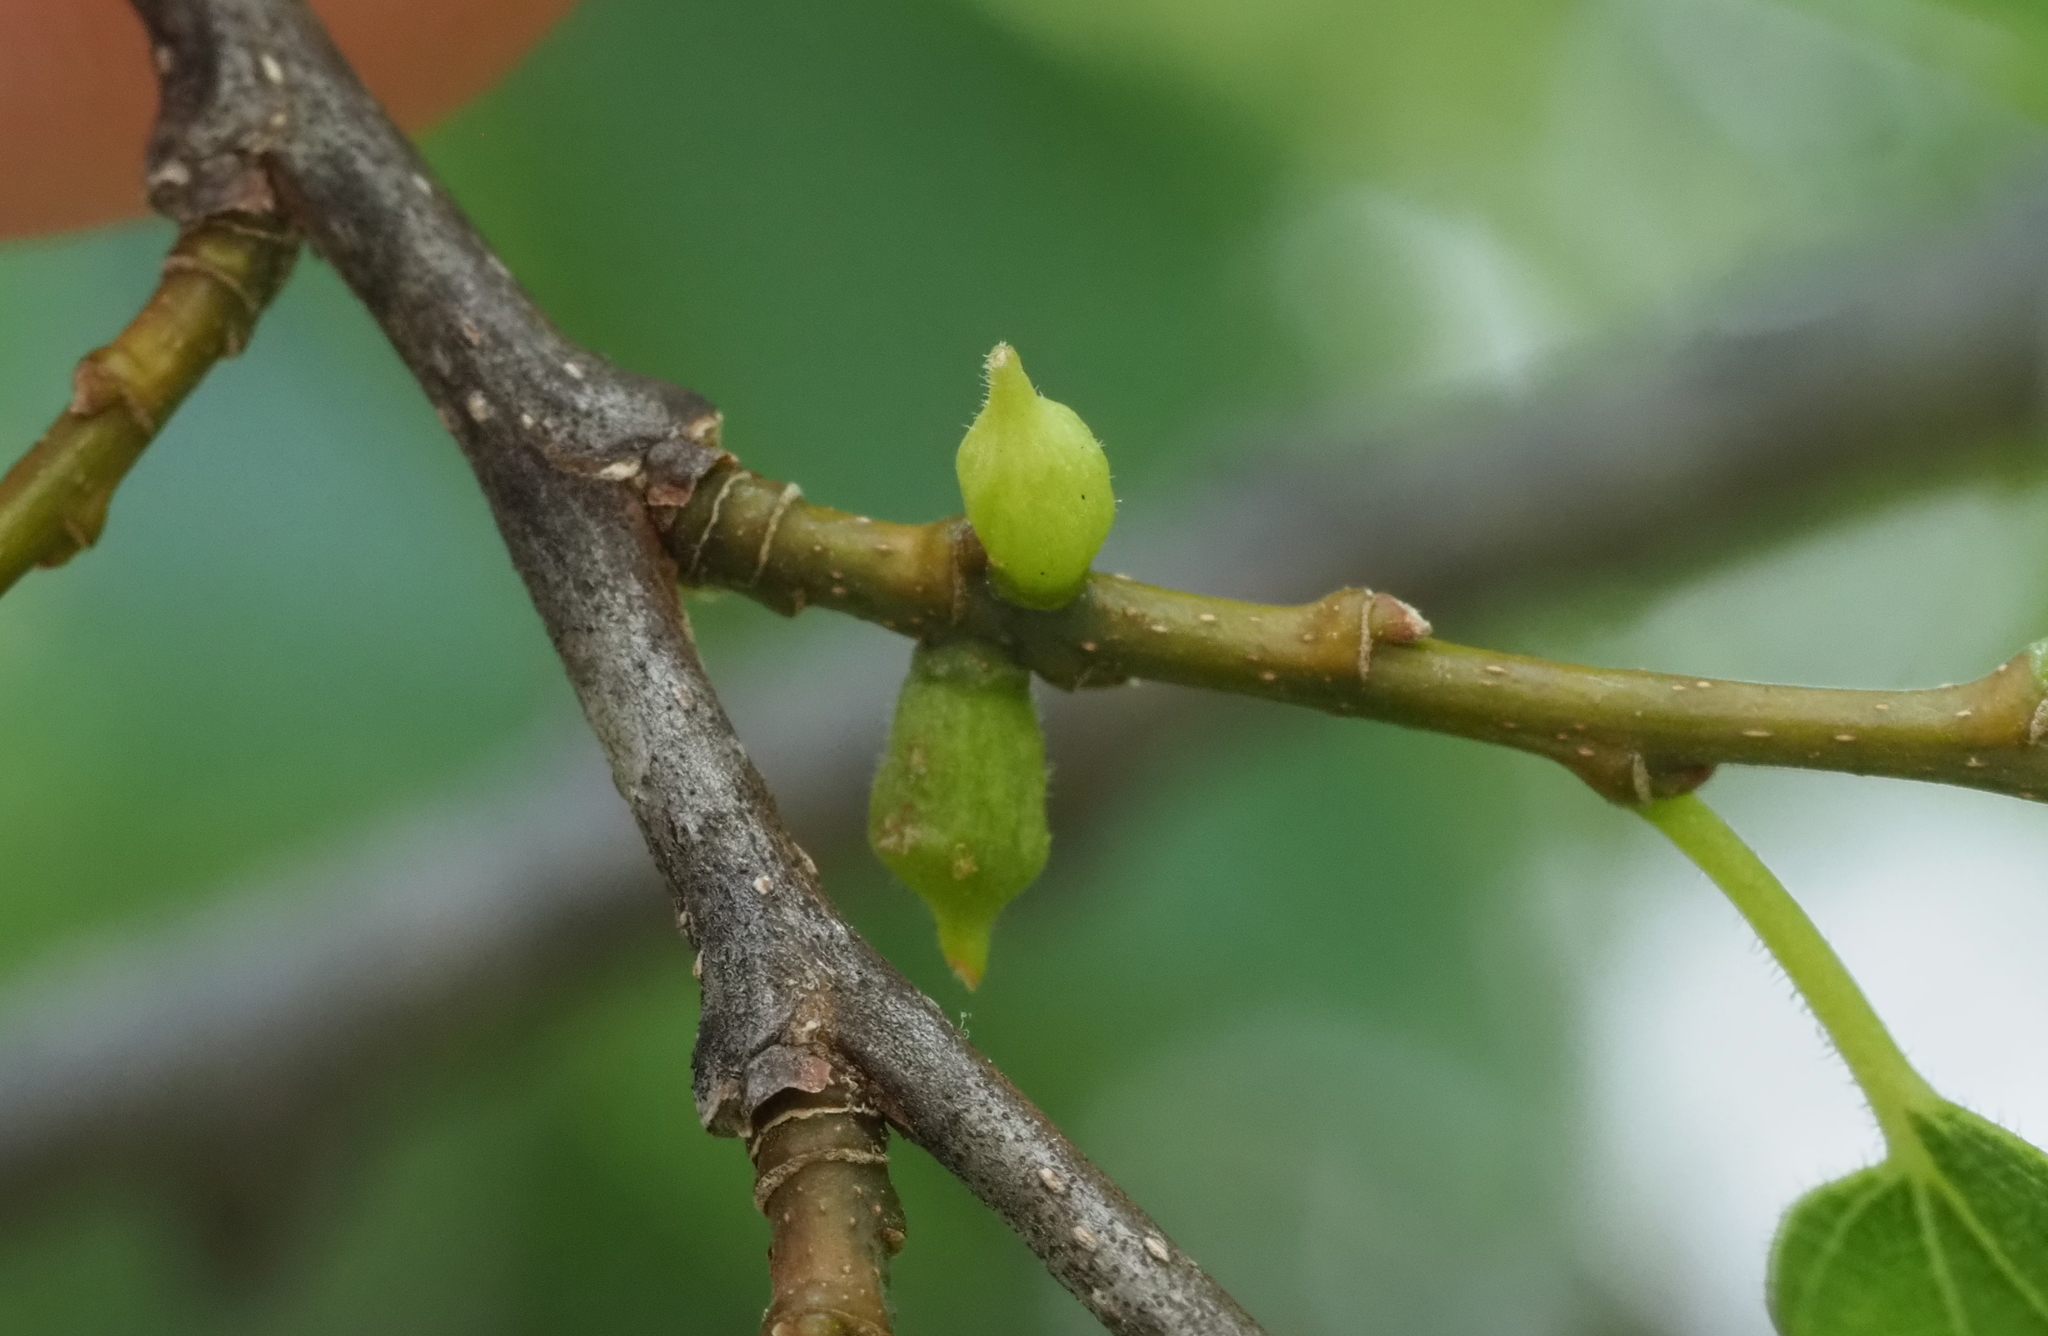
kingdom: Animalia
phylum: Arthropoda
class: Insecta
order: Diptera
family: Cecidomyiidae
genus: Celticecis
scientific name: Celticecis ramicola
